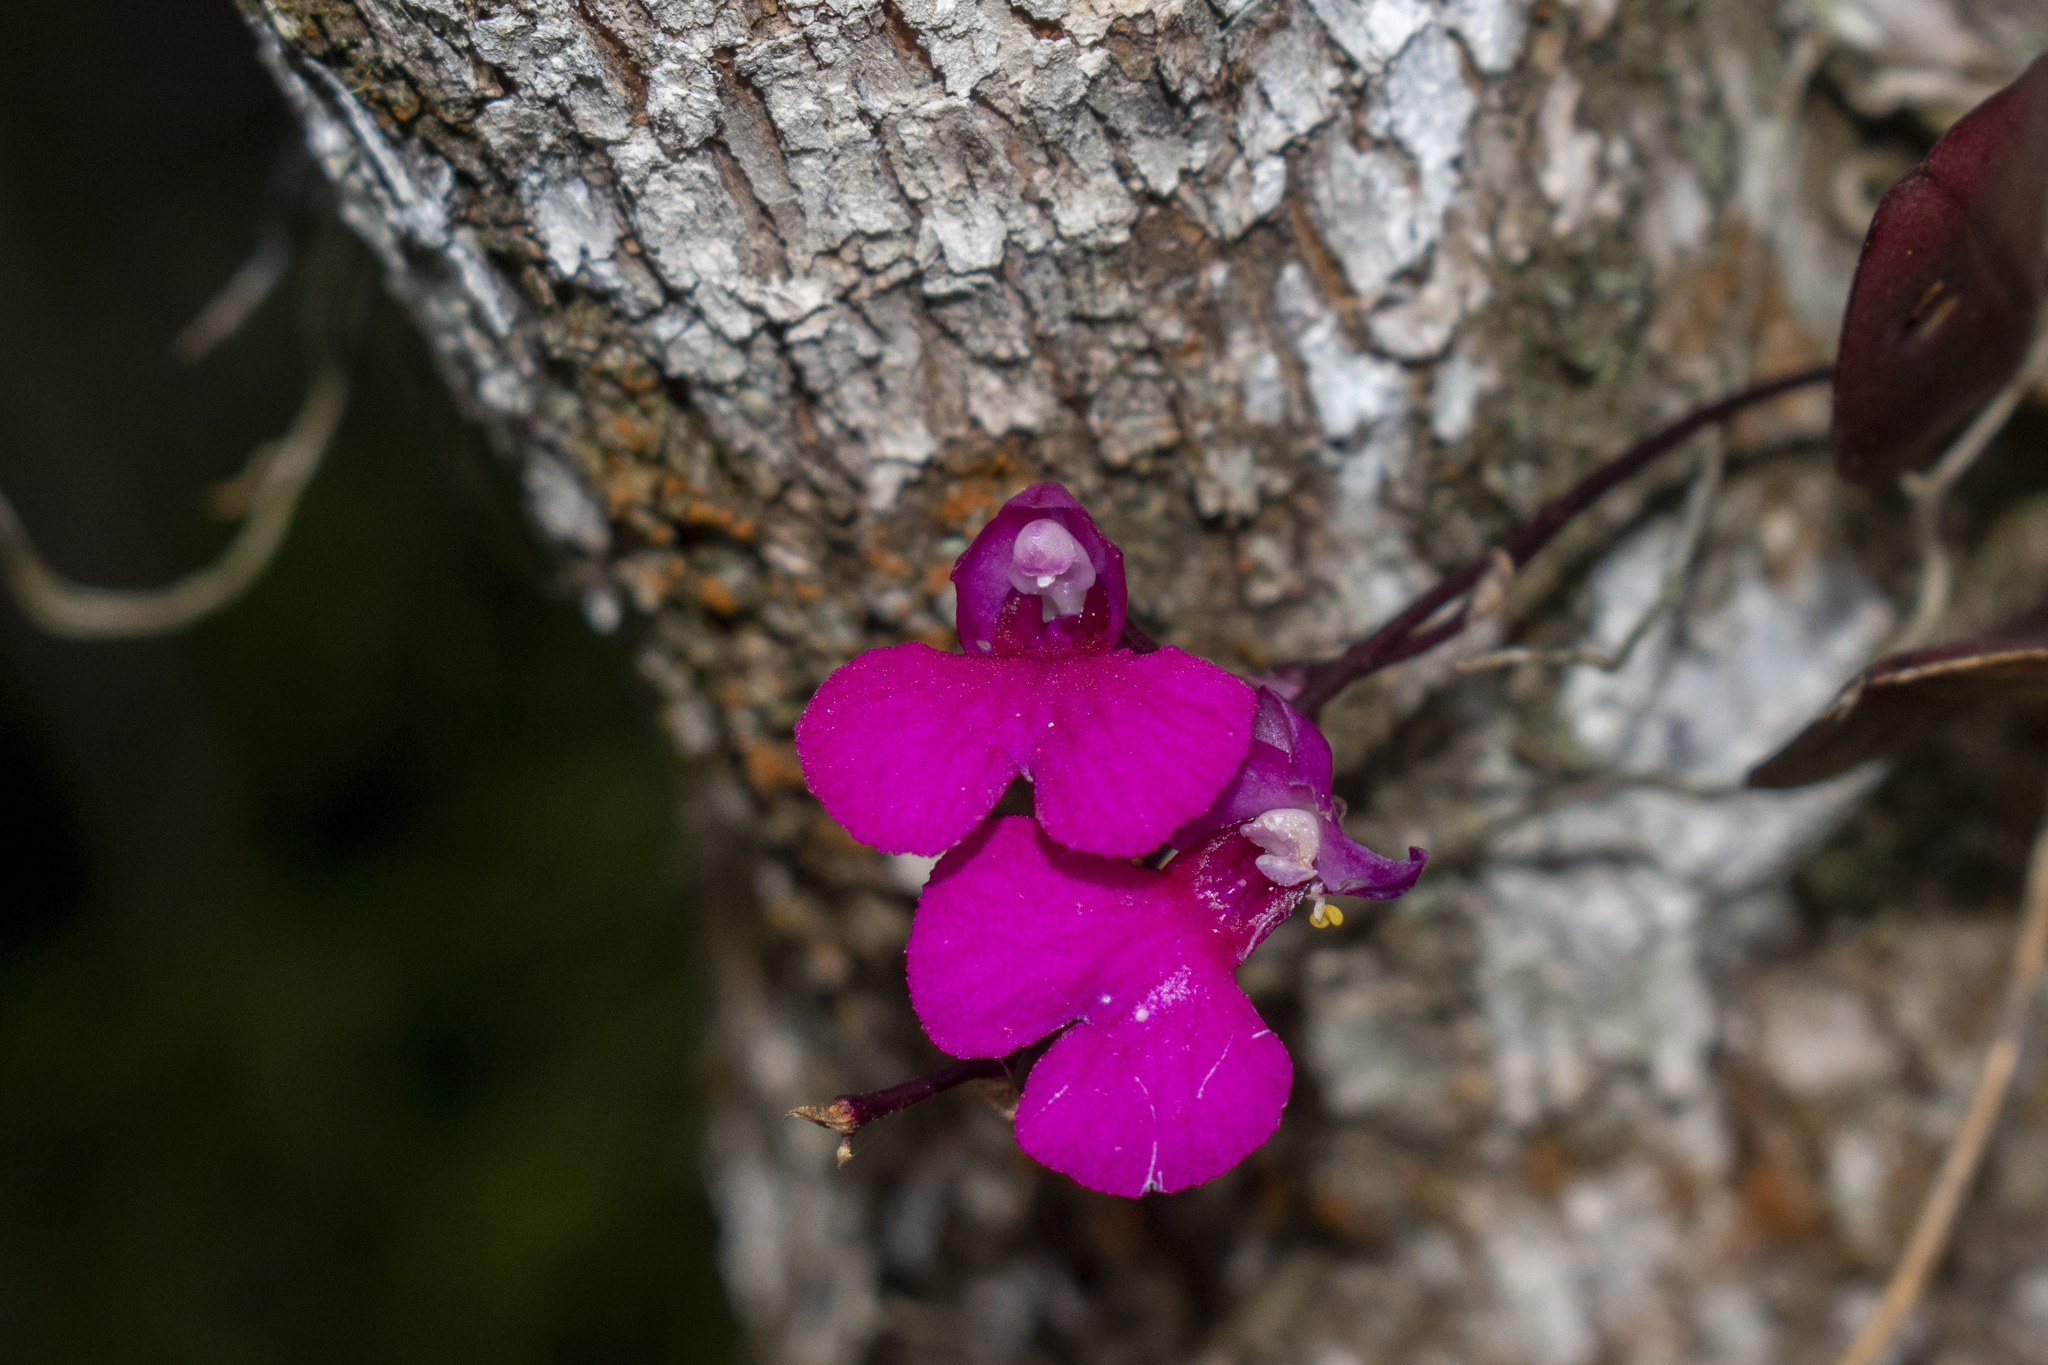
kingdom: Plantae
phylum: Tracheophyta
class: Liliopsida
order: Asparagales
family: Orchidaceae
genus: Comparettia
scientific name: Comparettia falcata
